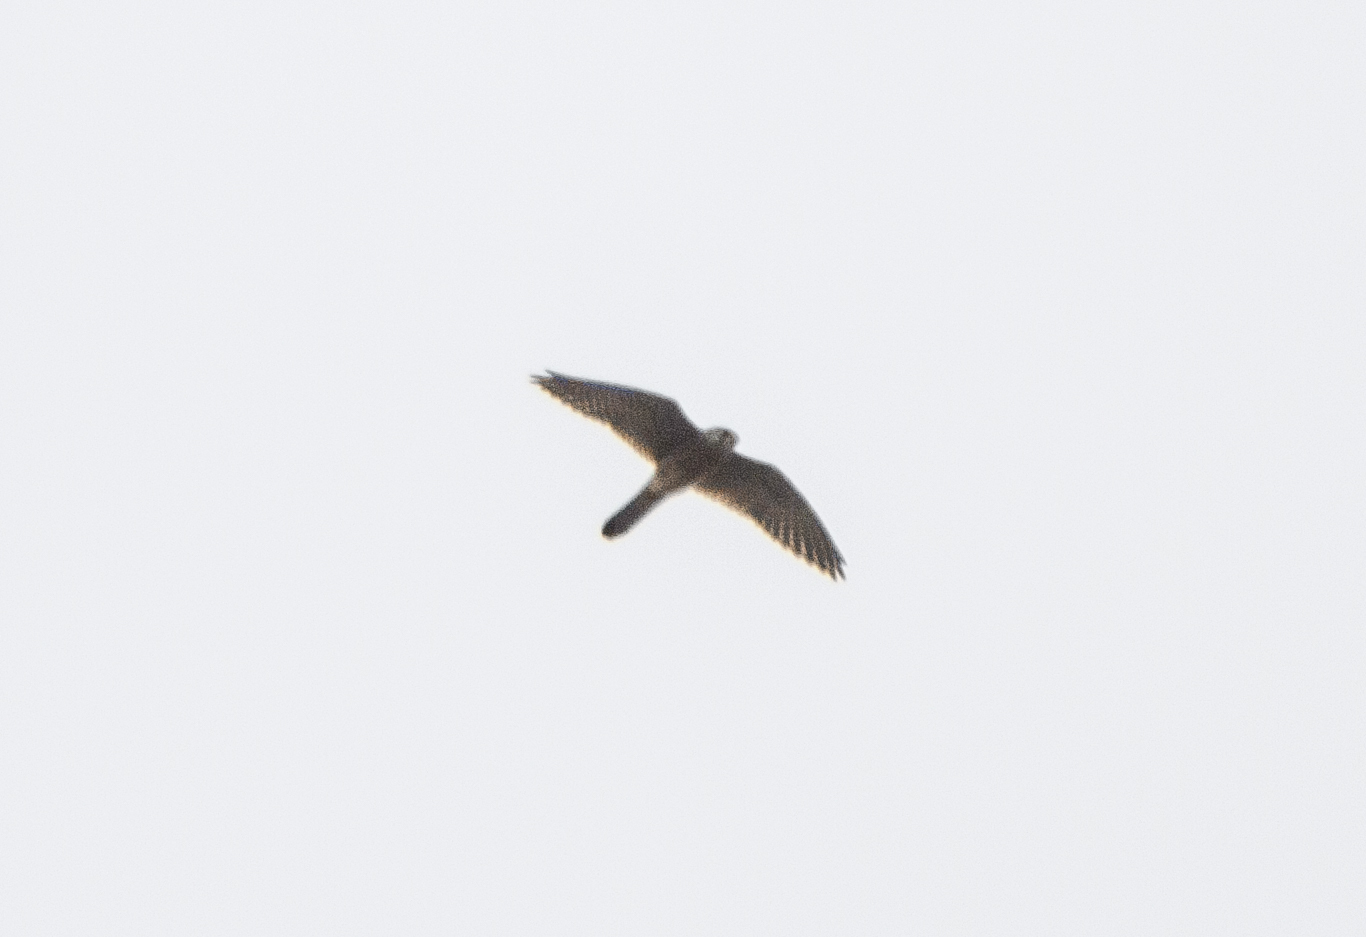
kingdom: Animalia
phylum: Chordata
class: Aves
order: Falconiformes
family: Falconidae
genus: Falco
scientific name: Falco tinnunculus
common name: Common kestrel
